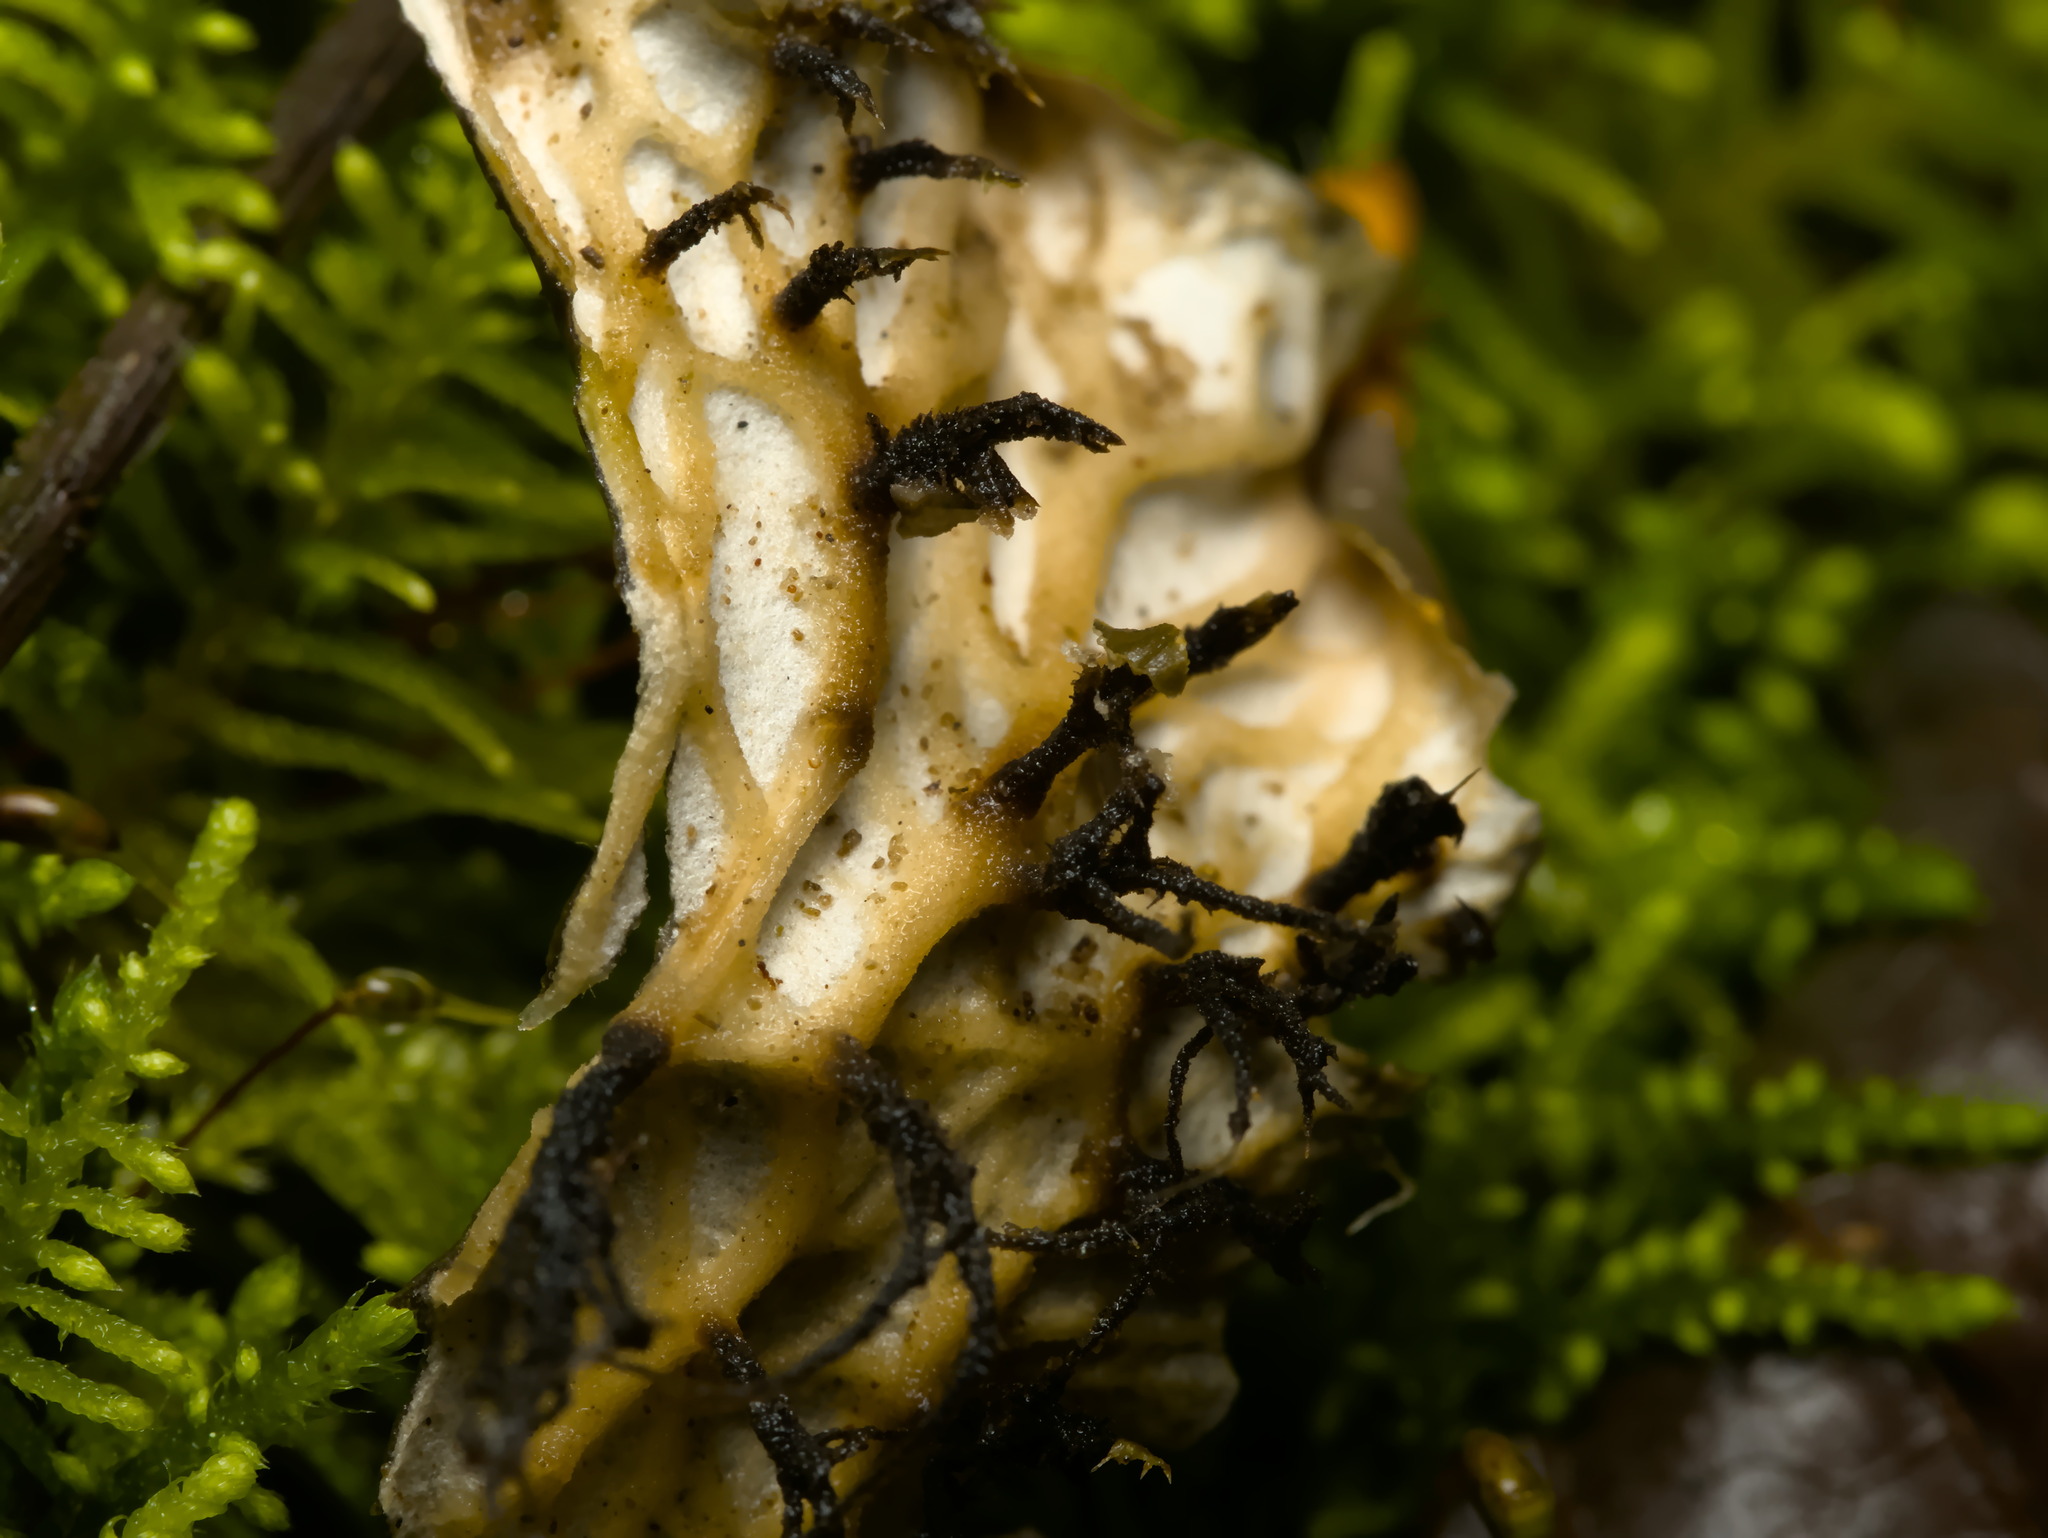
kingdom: Fungi
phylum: Ascomycota
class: Lecanoromycetes
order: Peltigerales
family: Peltigeraceae
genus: Peltigera
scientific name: Peltigera membranacea
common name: Membranous pelt lichen
